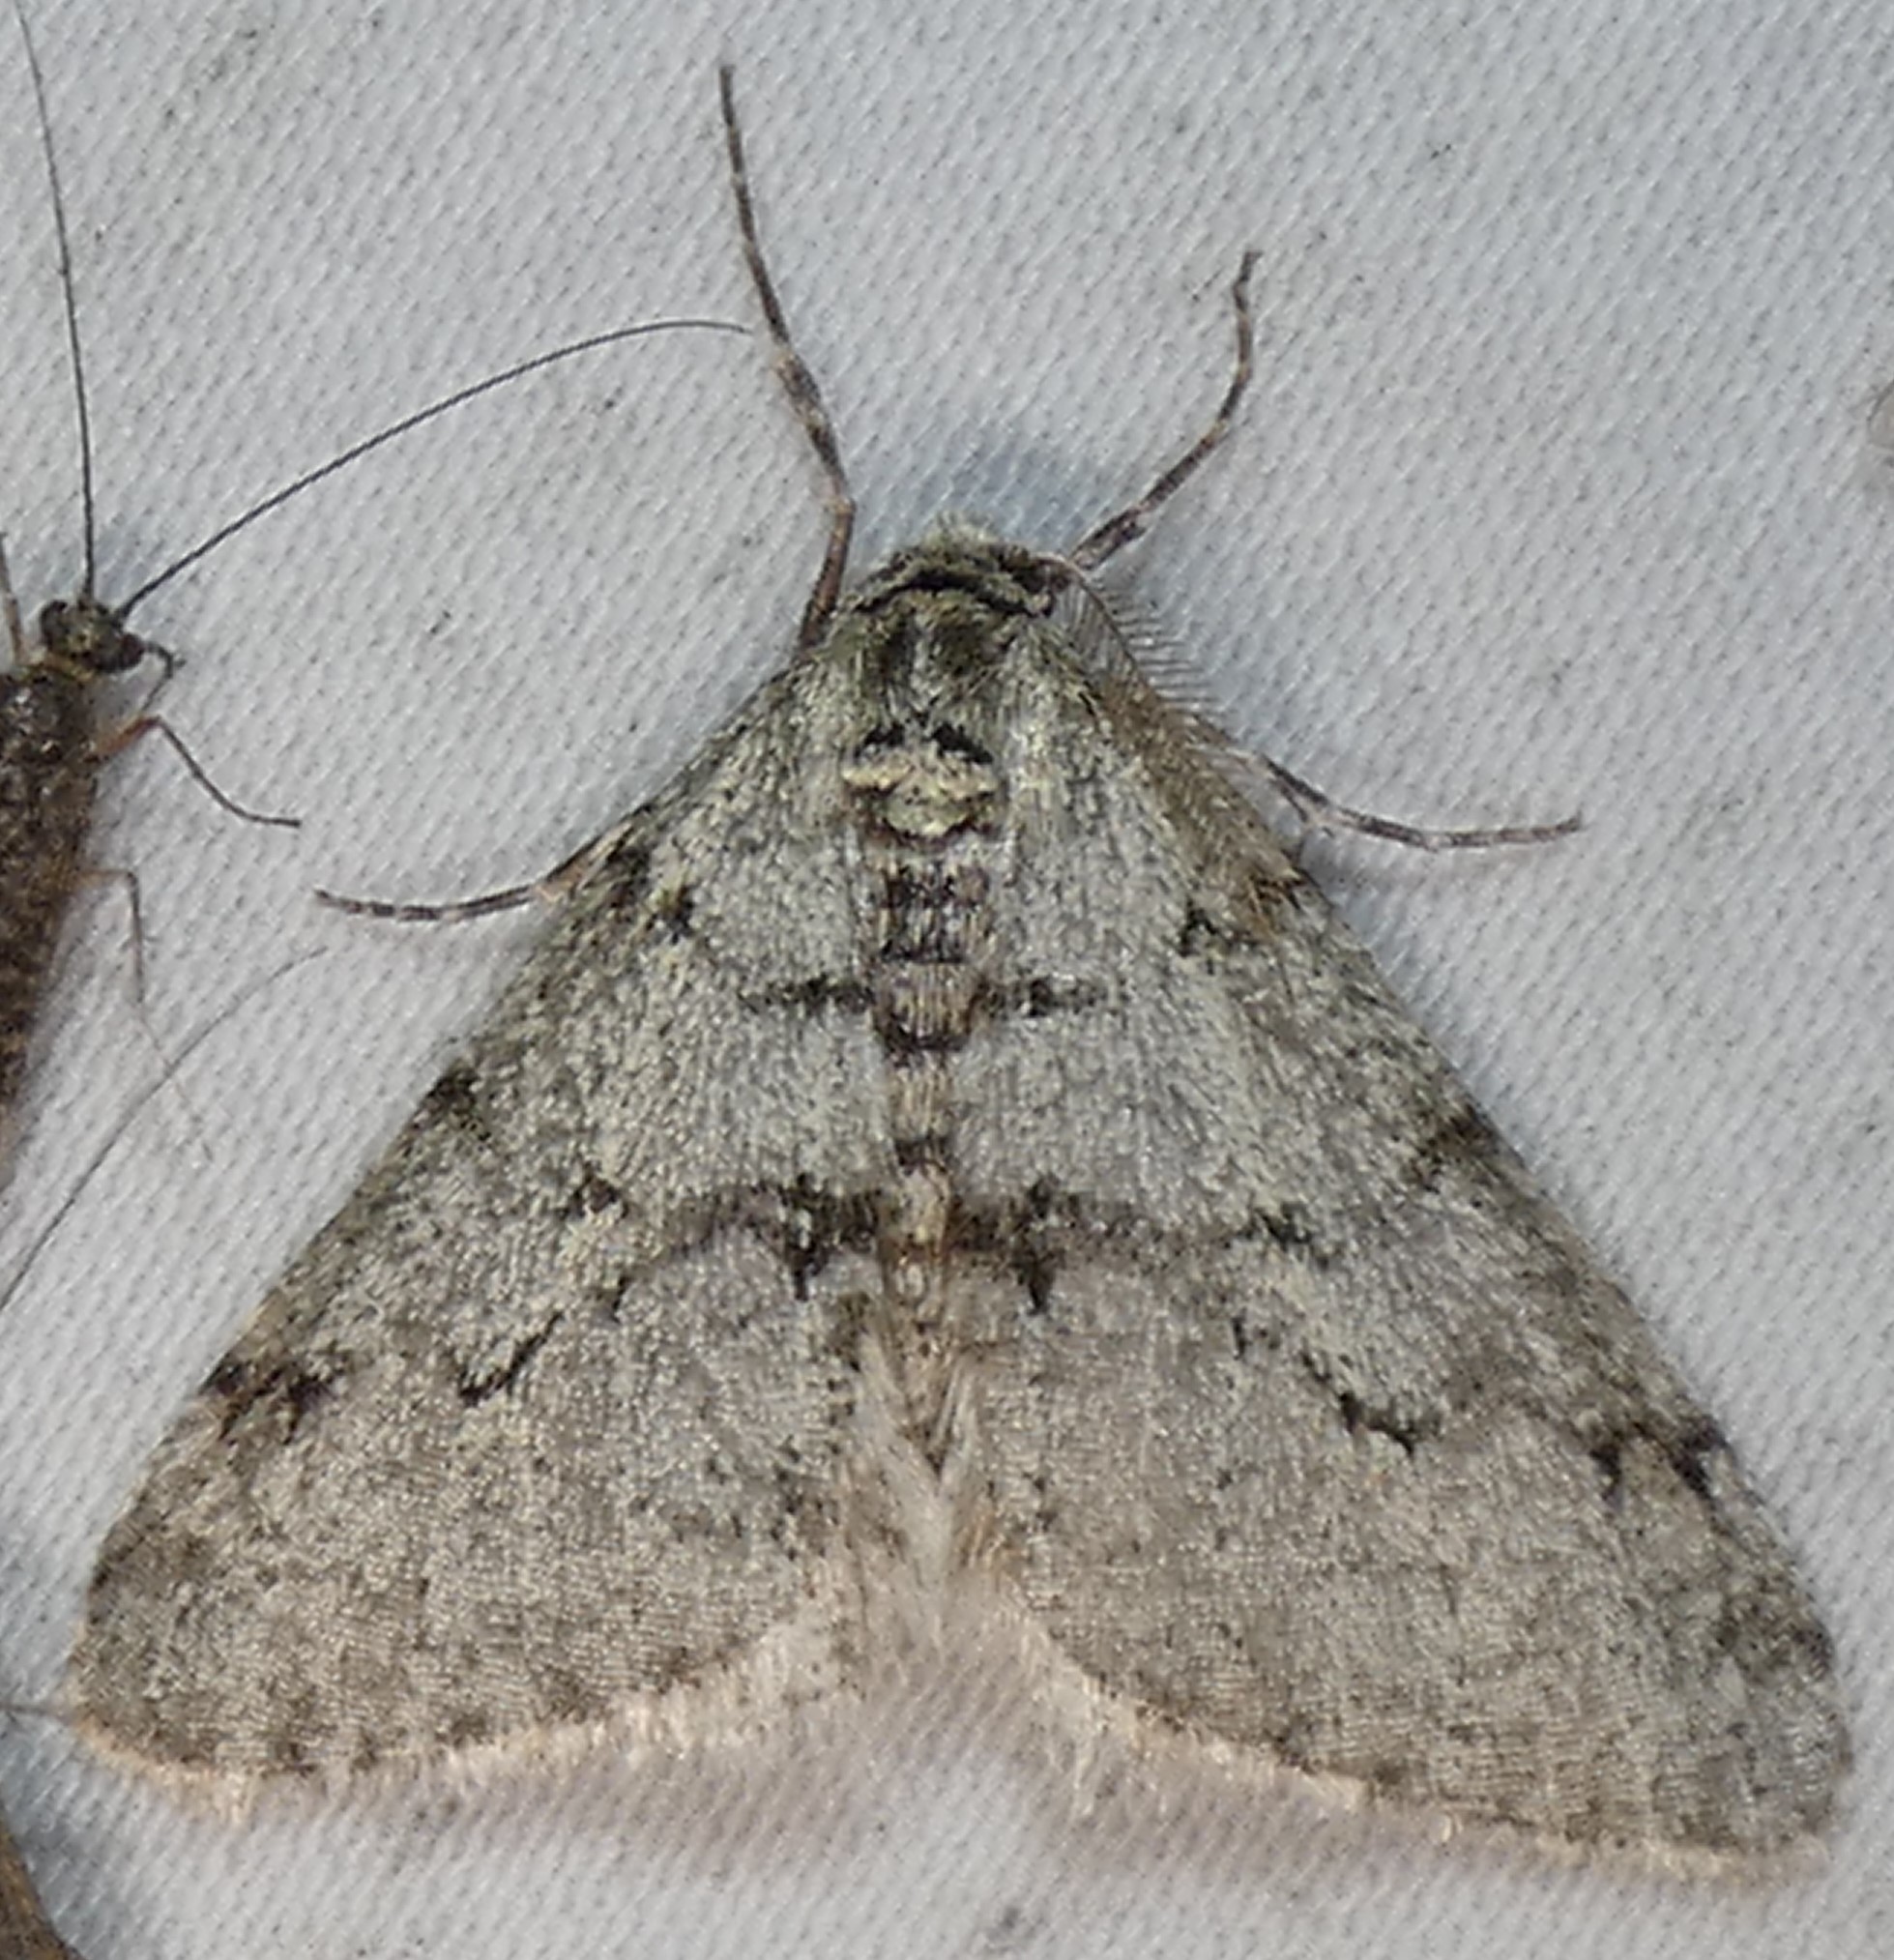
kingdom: Animalia
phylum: Arthropoda
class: Insecta
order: Lepidoptera
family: Geometridae
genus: Phigalia
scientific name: Phigalia strigataria
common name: Small phigalia
